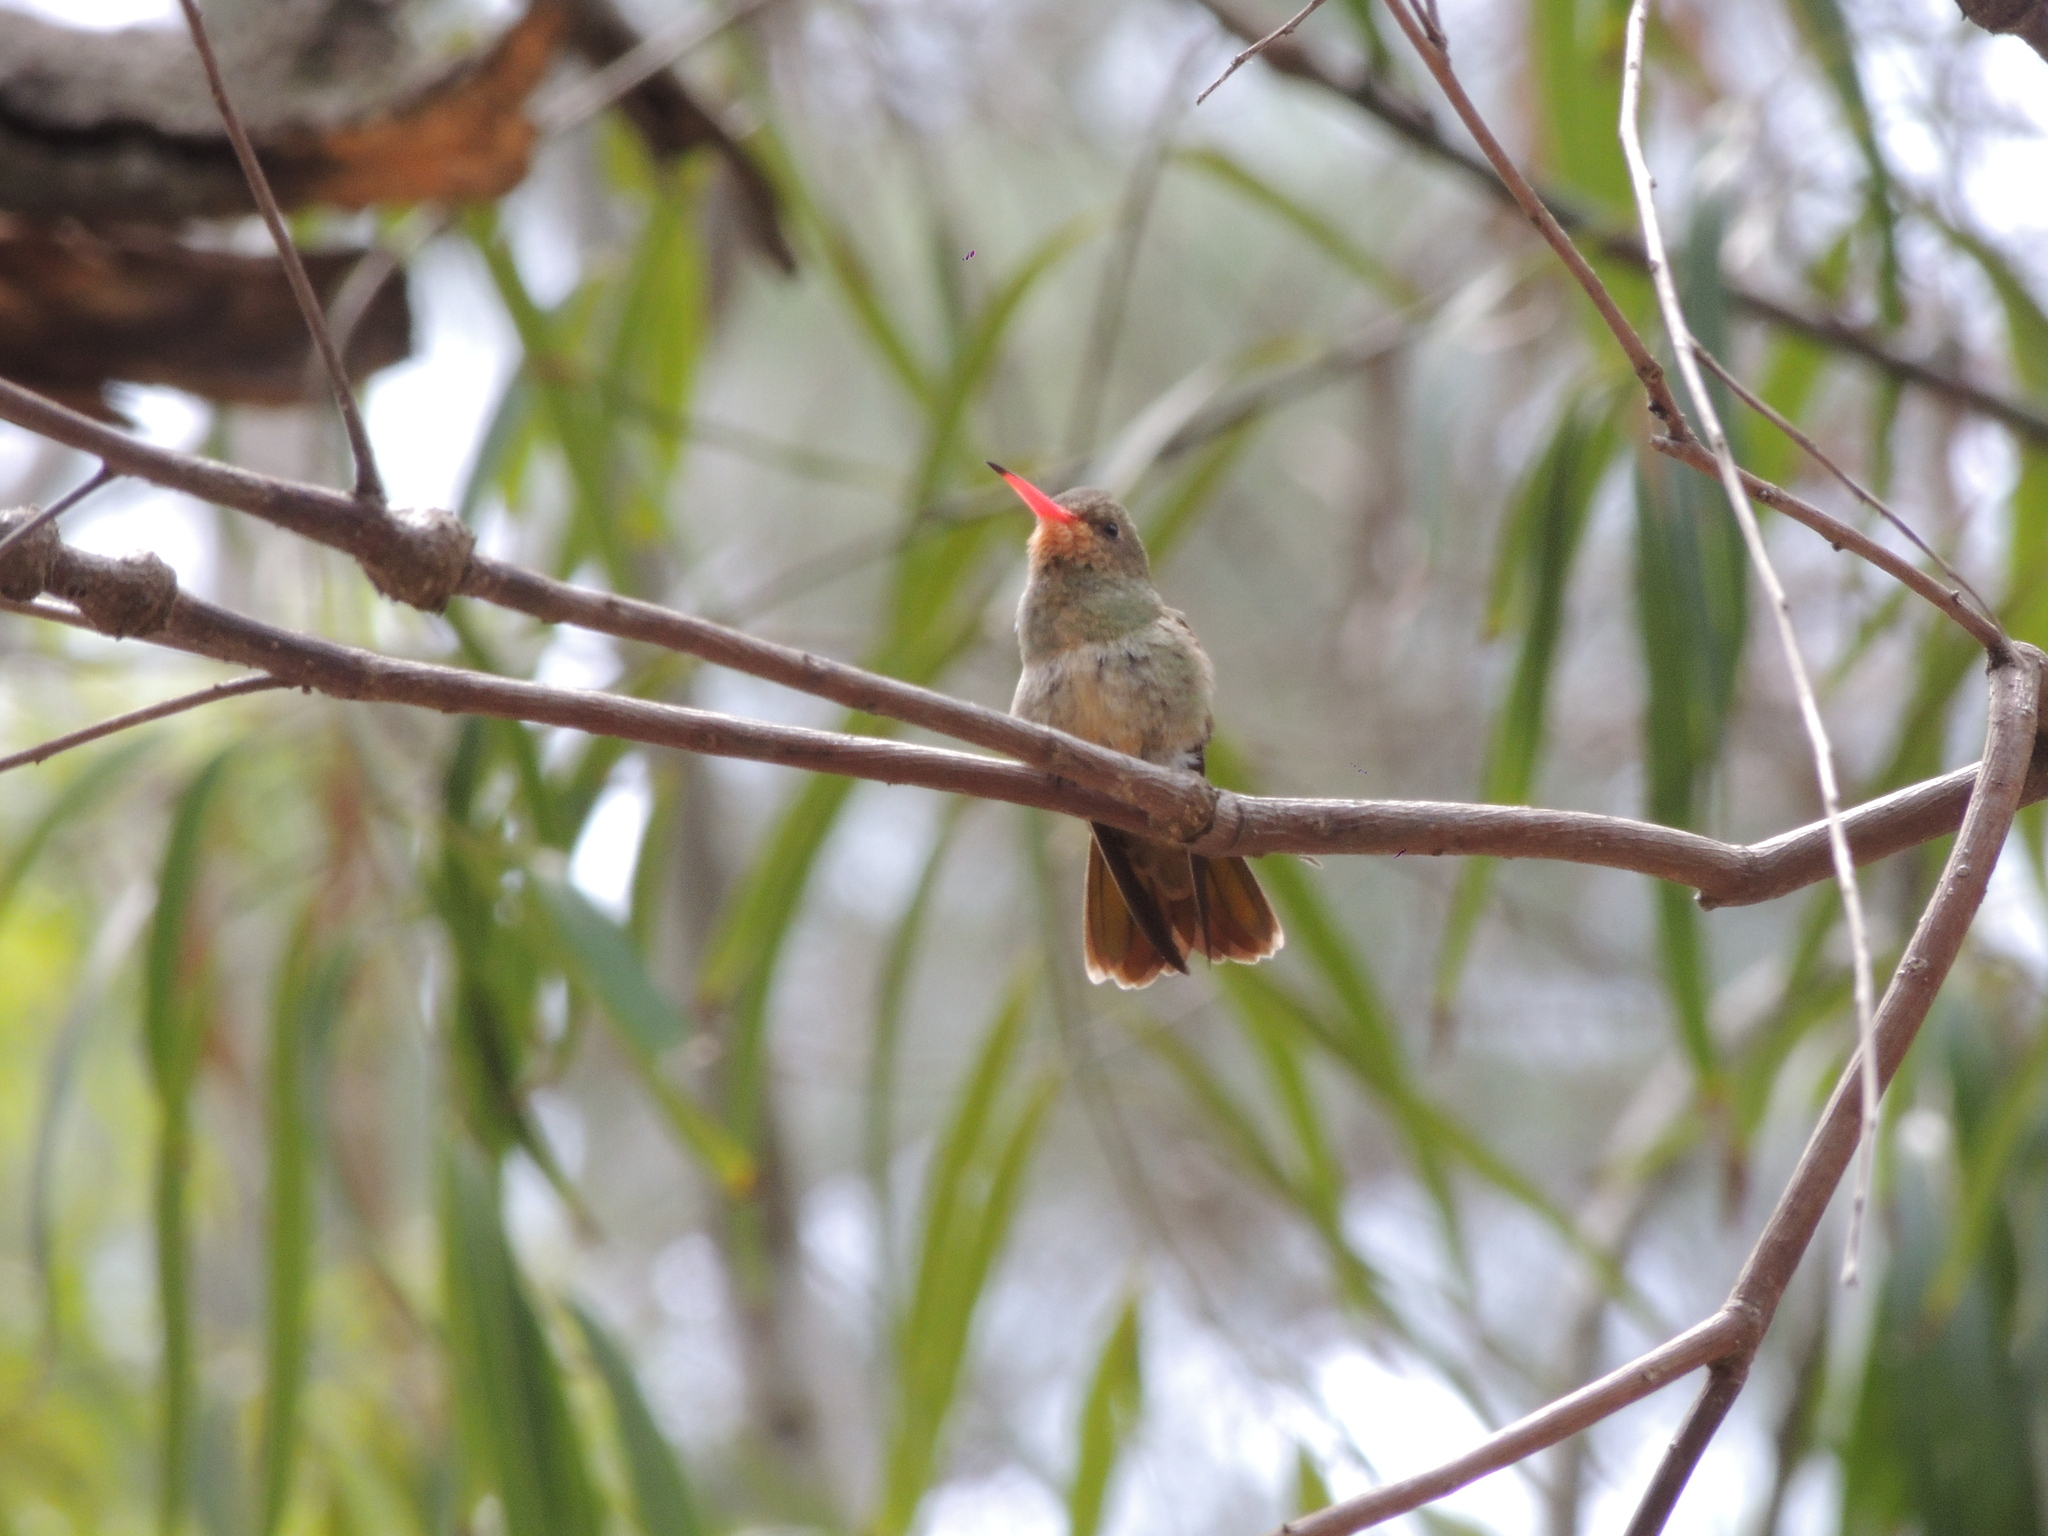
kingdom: Animalia
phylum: Chordata
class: Aves
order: Apodiformes
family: Trochilidae
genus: Hylocharis
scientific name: Hylocharis chrysura
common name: Gilded sapphire
